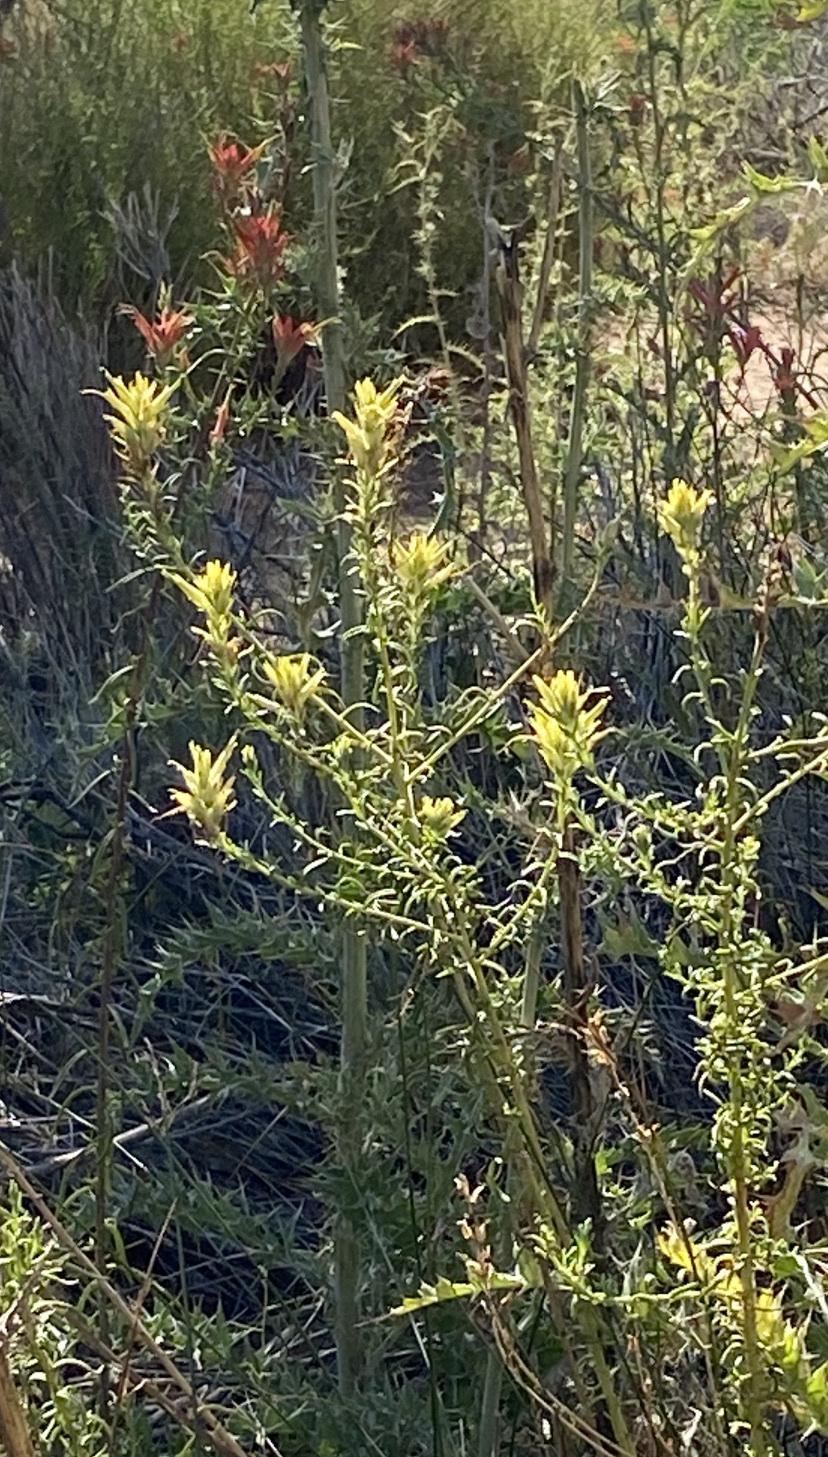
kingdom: Plantae
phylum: Tracheophyta
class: Magnoliopsida
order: Lamiales
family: Orobanchaceae
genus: Castilleja
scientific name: Castilleja linariifolia
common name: Wyoming paintbrush
